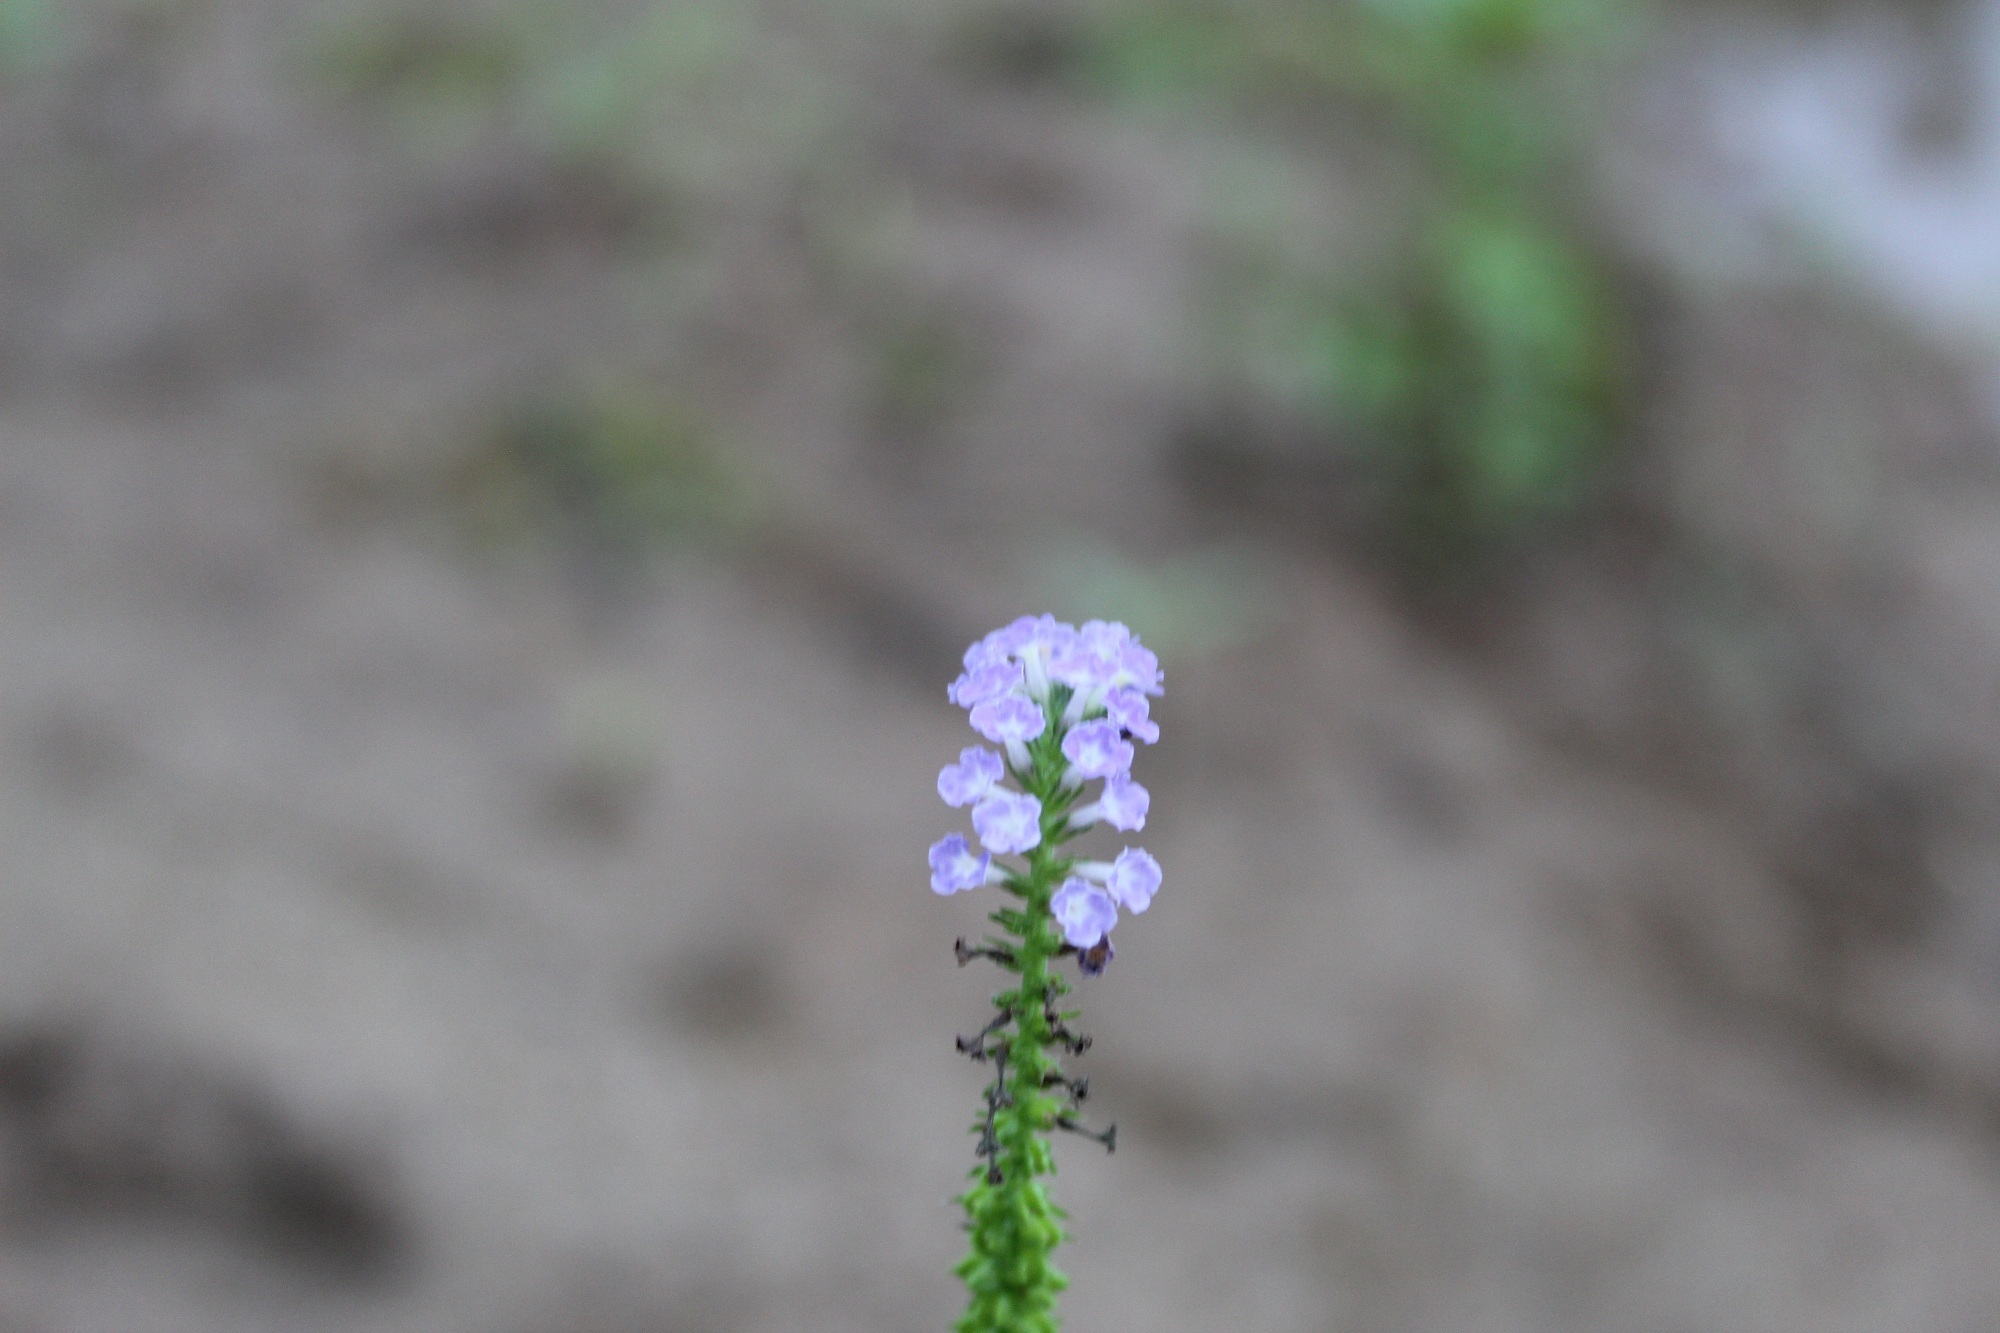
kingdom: Plantae
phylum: Tracheophyta
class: Magnoliopsida
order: Boraginales
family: Heliotropiaceae
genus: Heliotropium
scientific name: Heliotropium indicum
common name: Indian heliotrope
